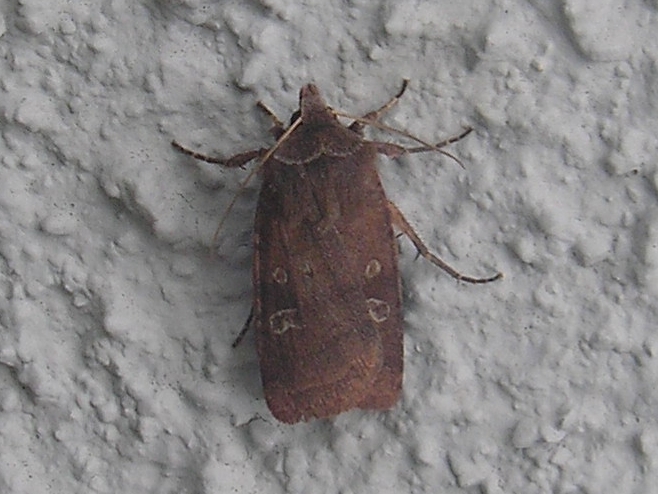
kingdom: Animalia
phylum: Arthropoda
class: Insecta
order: Lepidoptera
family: Noctuidae
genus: Diarsia
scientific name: Diarsia rubi
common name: Small square-spot
